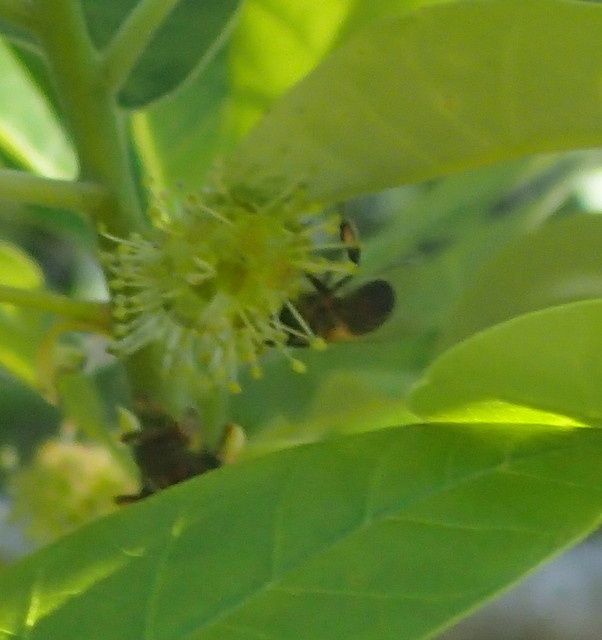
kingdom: Animalia
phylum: Arthropoda
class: Insecta
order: Hymenoptera
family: Apidae
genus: Apis
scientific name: Apis mellifera
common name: Honey bee
